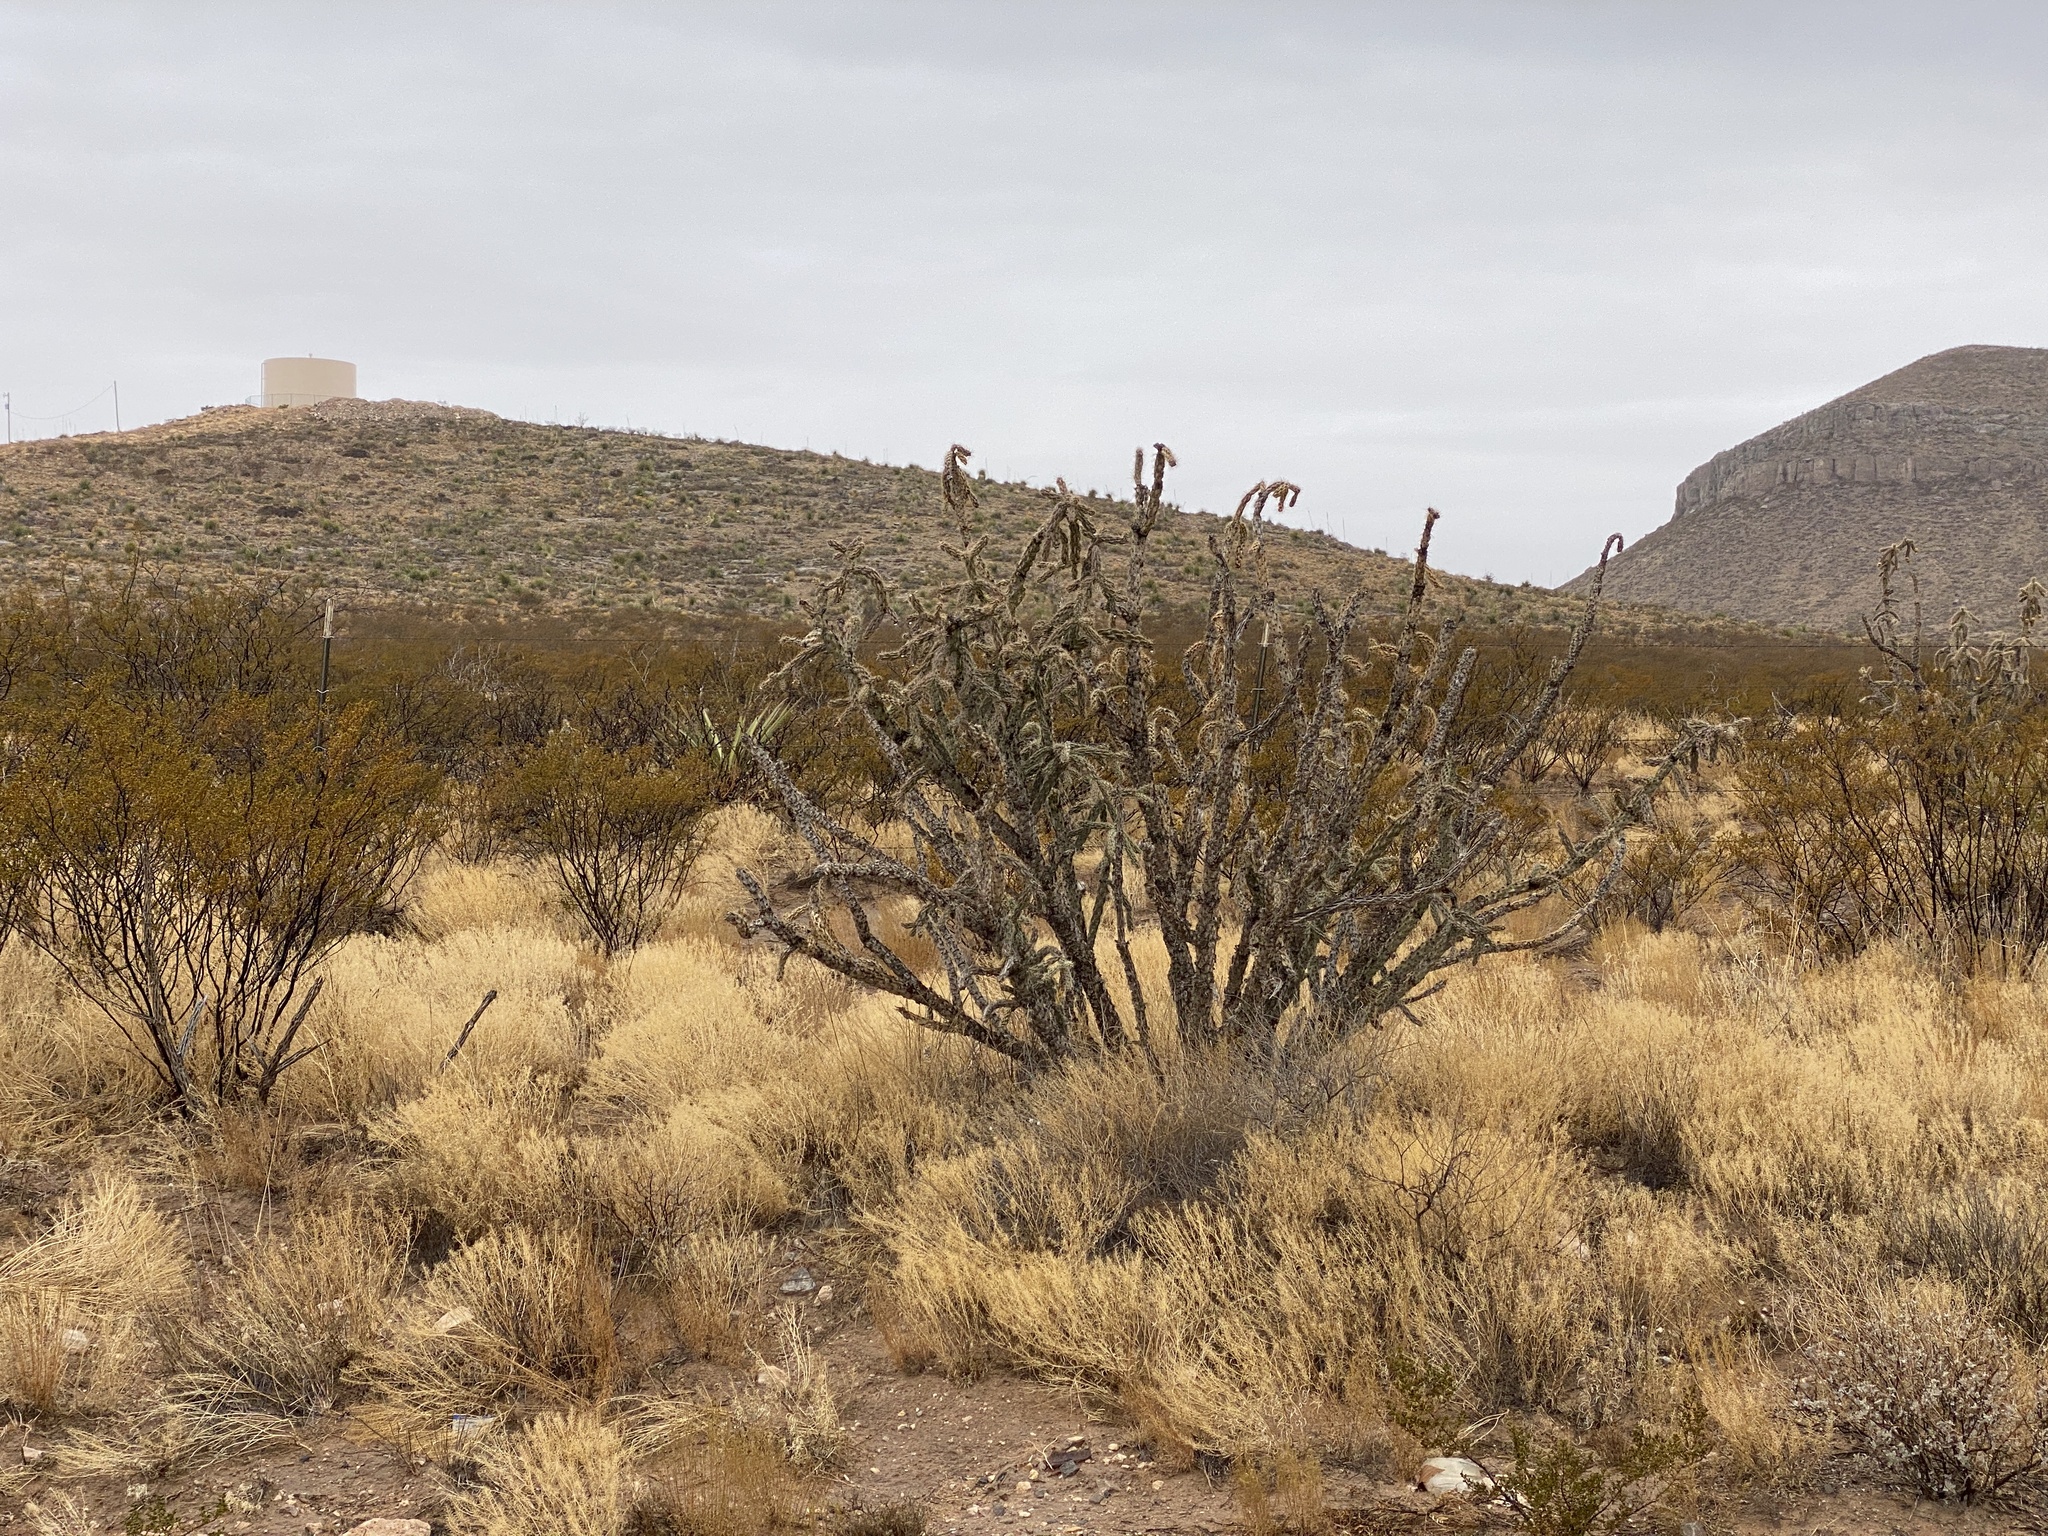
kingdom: Plantae
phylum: Tracheophyta
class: Magnoliopsida
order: Caryophyllales
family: Cactaceae
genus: Cylindropuntia
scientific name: Cylindropuntia imbricata
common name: Candelabrum cactus
